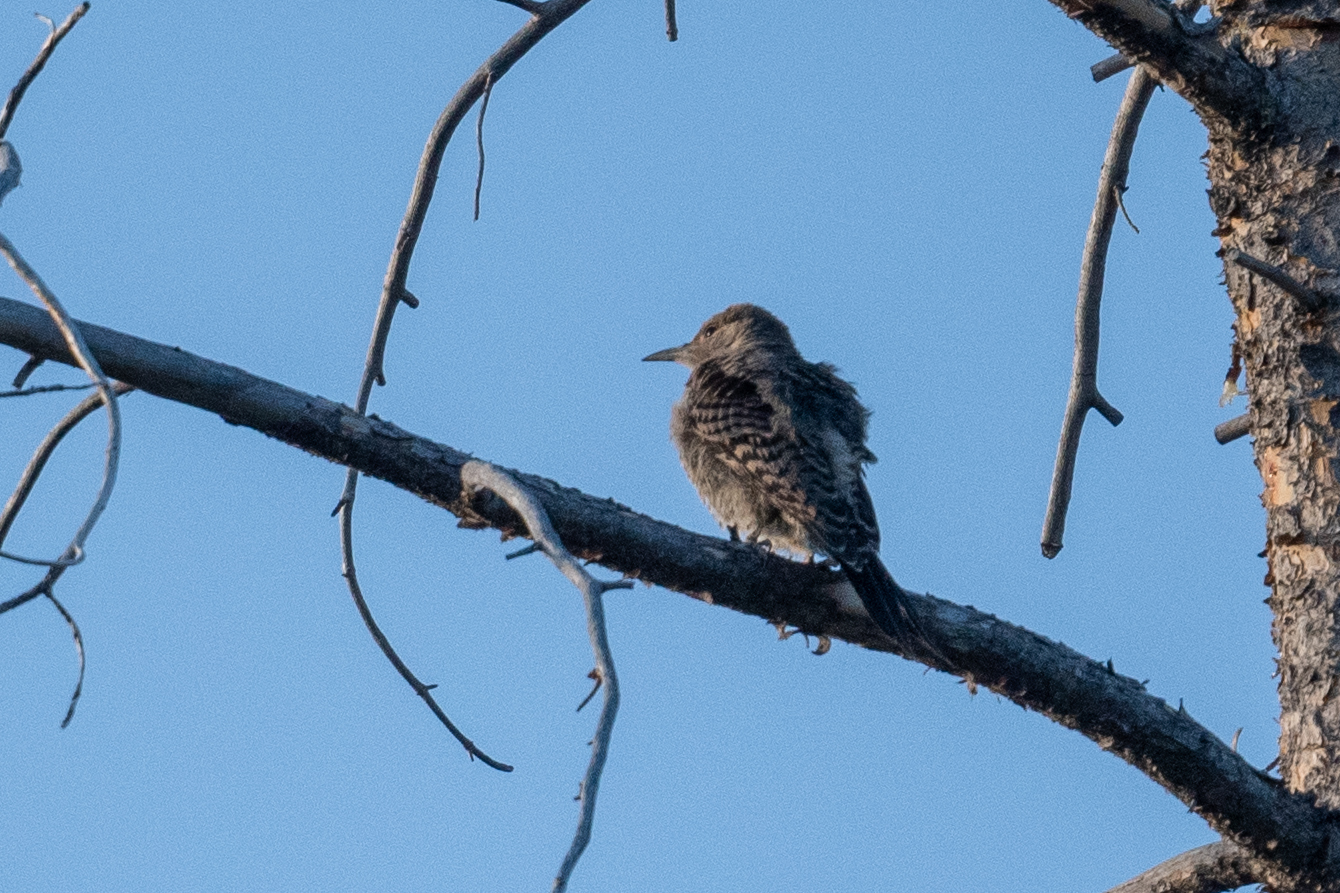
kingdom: Animalia
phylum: Chordata
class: Aves
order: Piciformes
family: Picidae
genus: Colaptes
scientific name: Colaptes auratus
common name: Northern flicker
